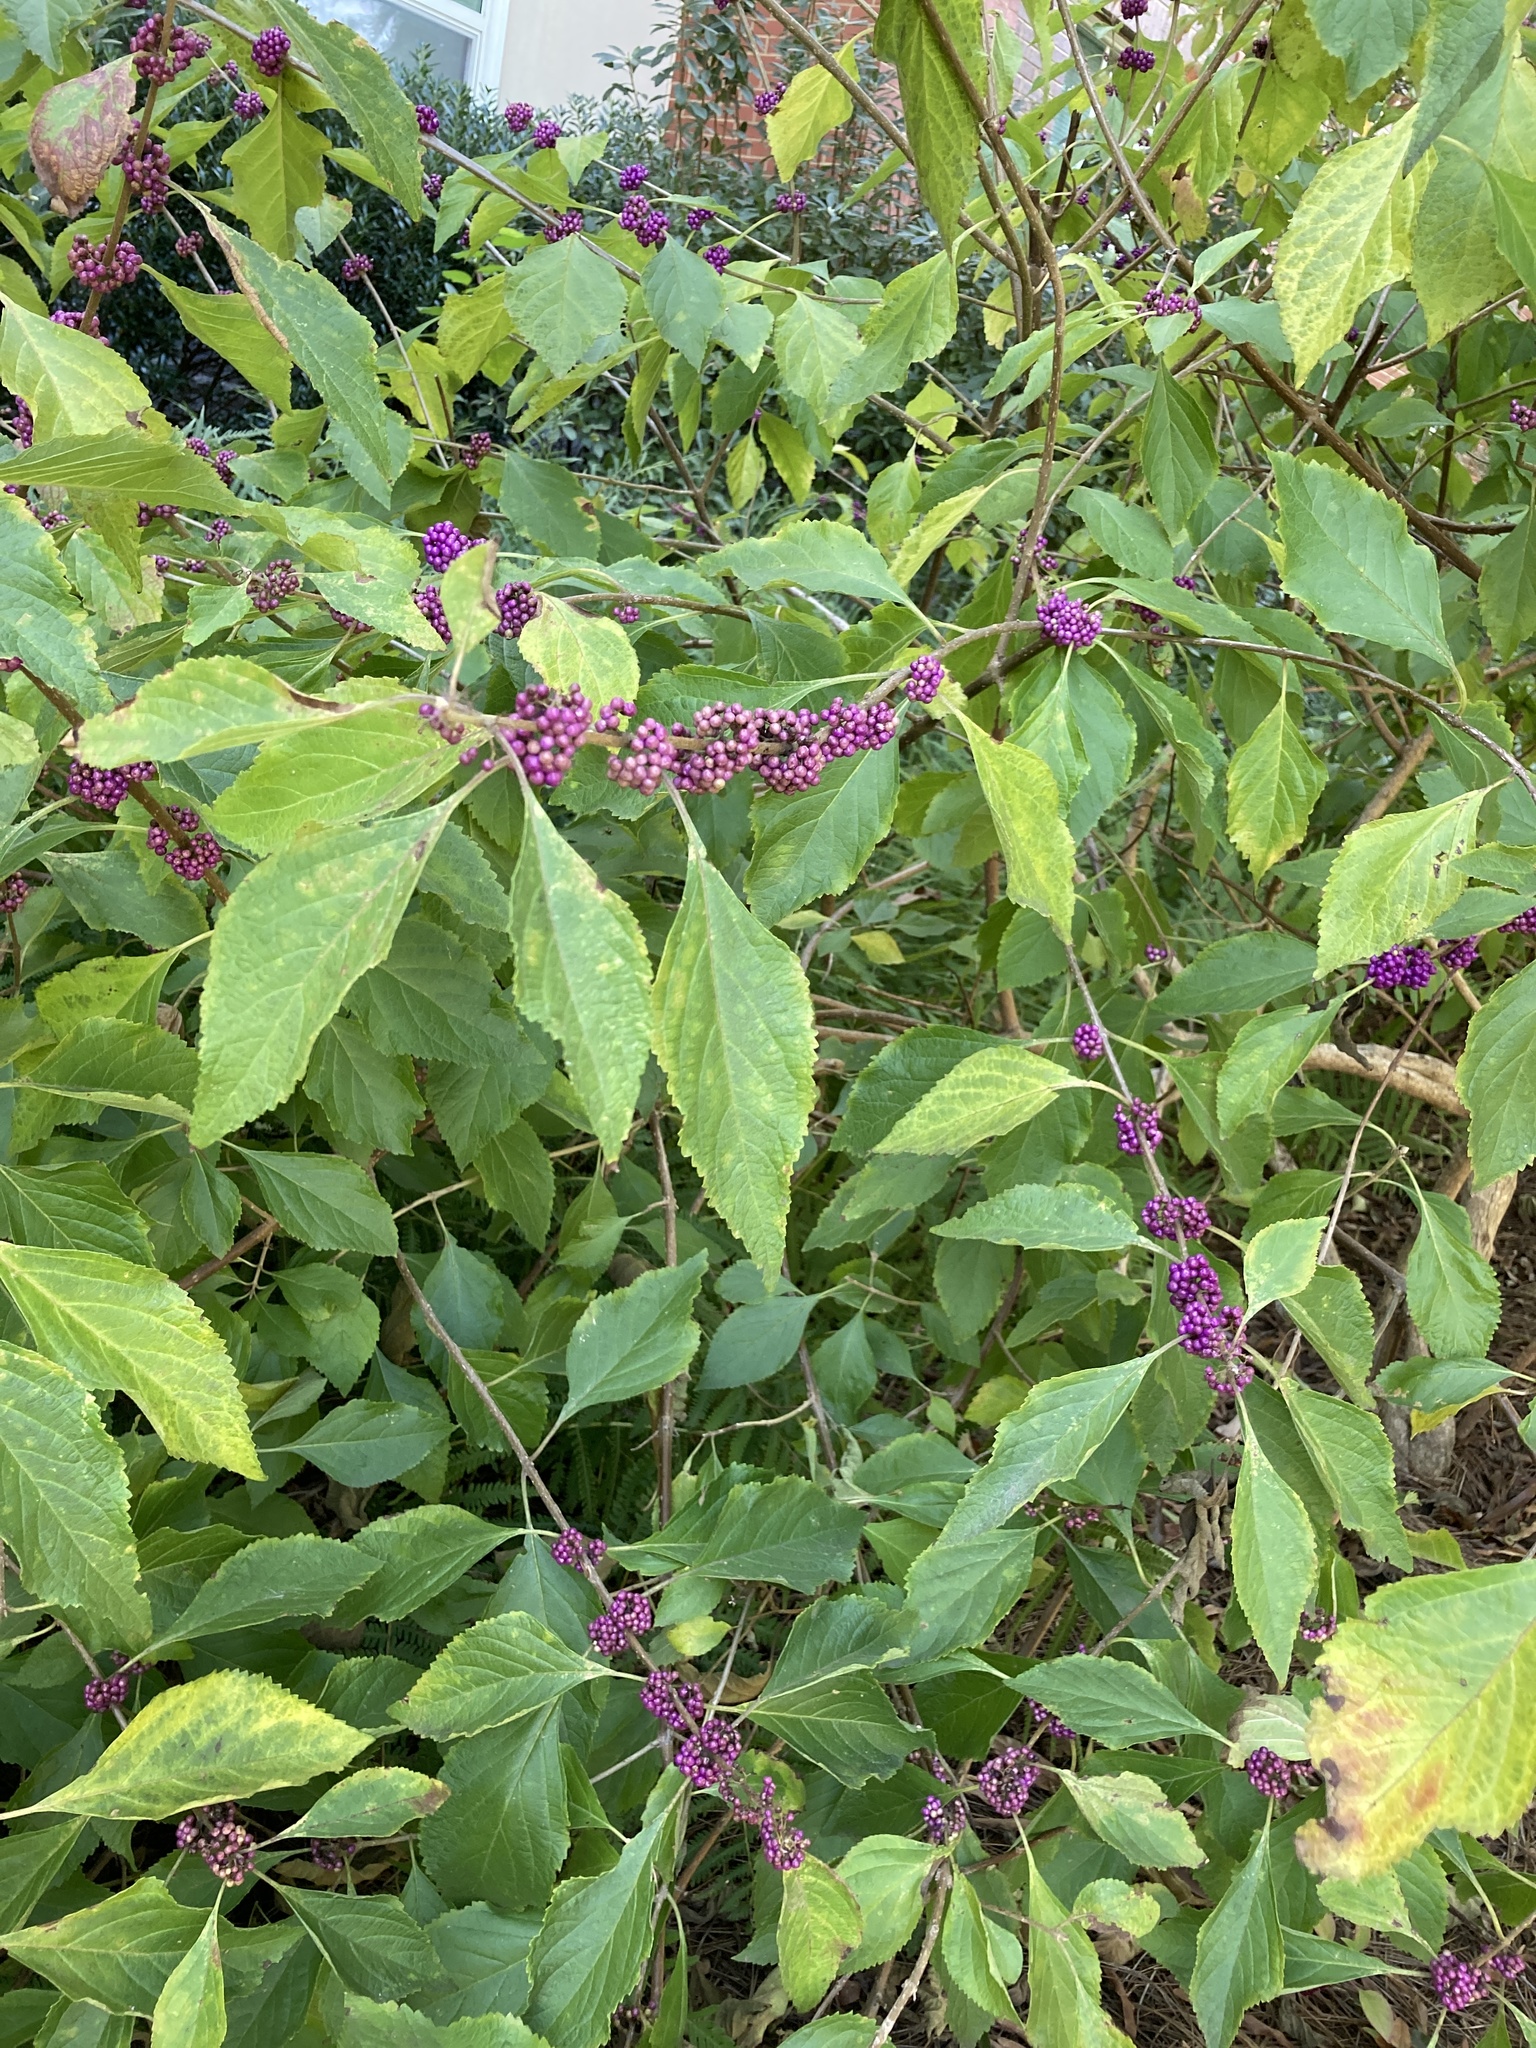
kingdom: Plantae
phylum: Tracheophyta
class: Magnoliopsida
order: Lamiales
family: Lamiaceae
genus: Callicarpa
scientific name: Callicarpa americana
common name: American beautyberry
